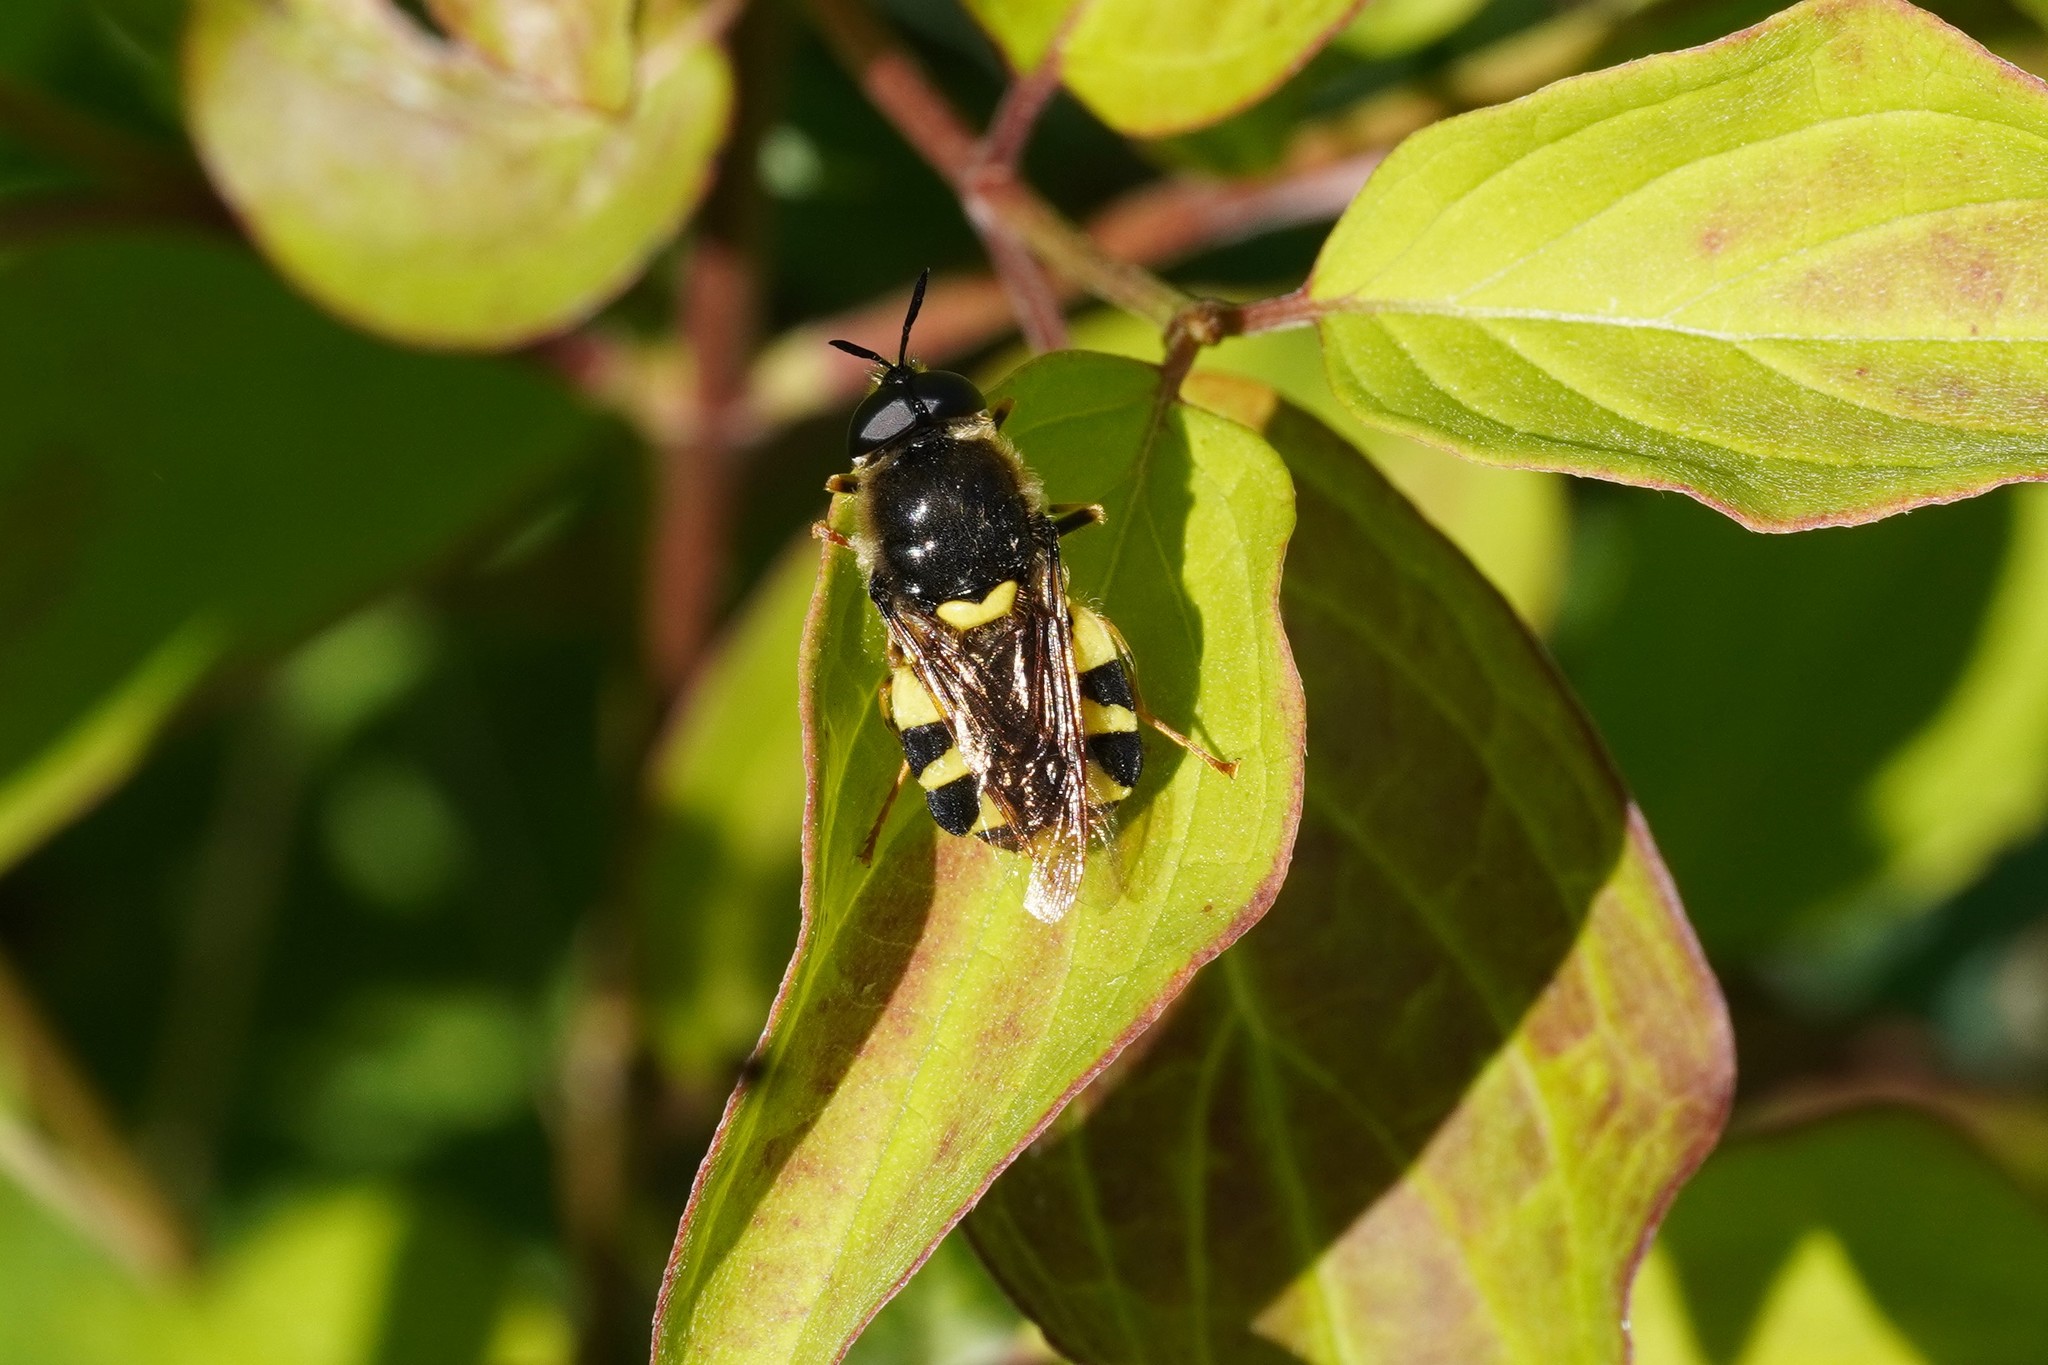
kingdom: Animalia
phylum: Arthropoda
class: Insecta
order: Diptera
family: Stratiomyidae
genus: Stratiomys
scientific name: Stratiomys chamaeleon
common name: Clubbed general
